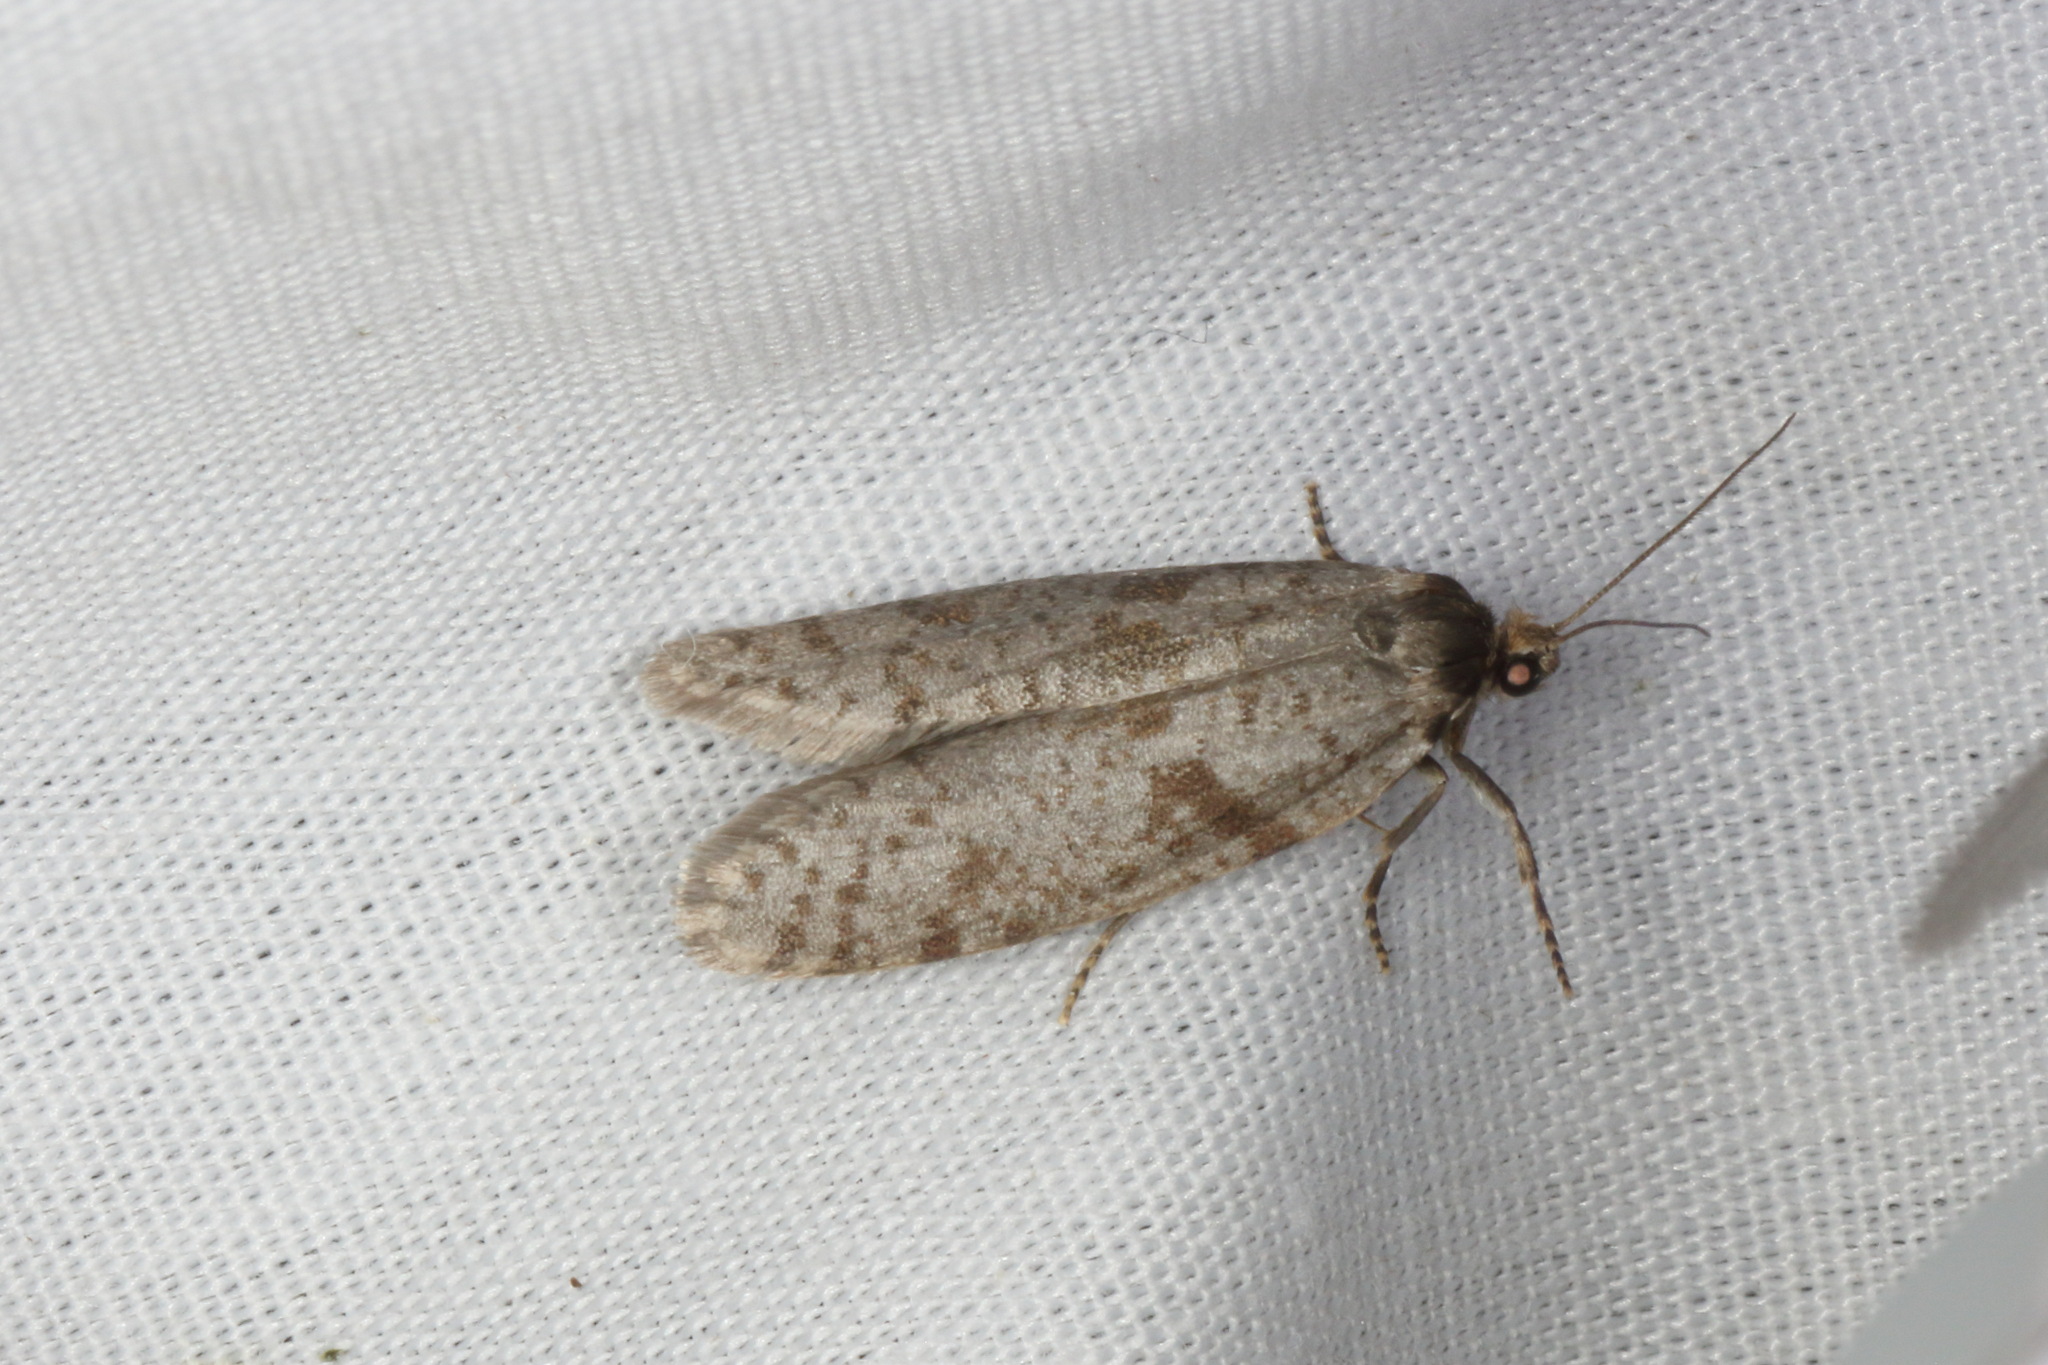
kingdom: Animalia
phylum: Arthropoda
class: Insecta
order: Lepidoptera
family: Psychidae
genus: Lepidoscia
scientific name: Lepidoscia protorna
